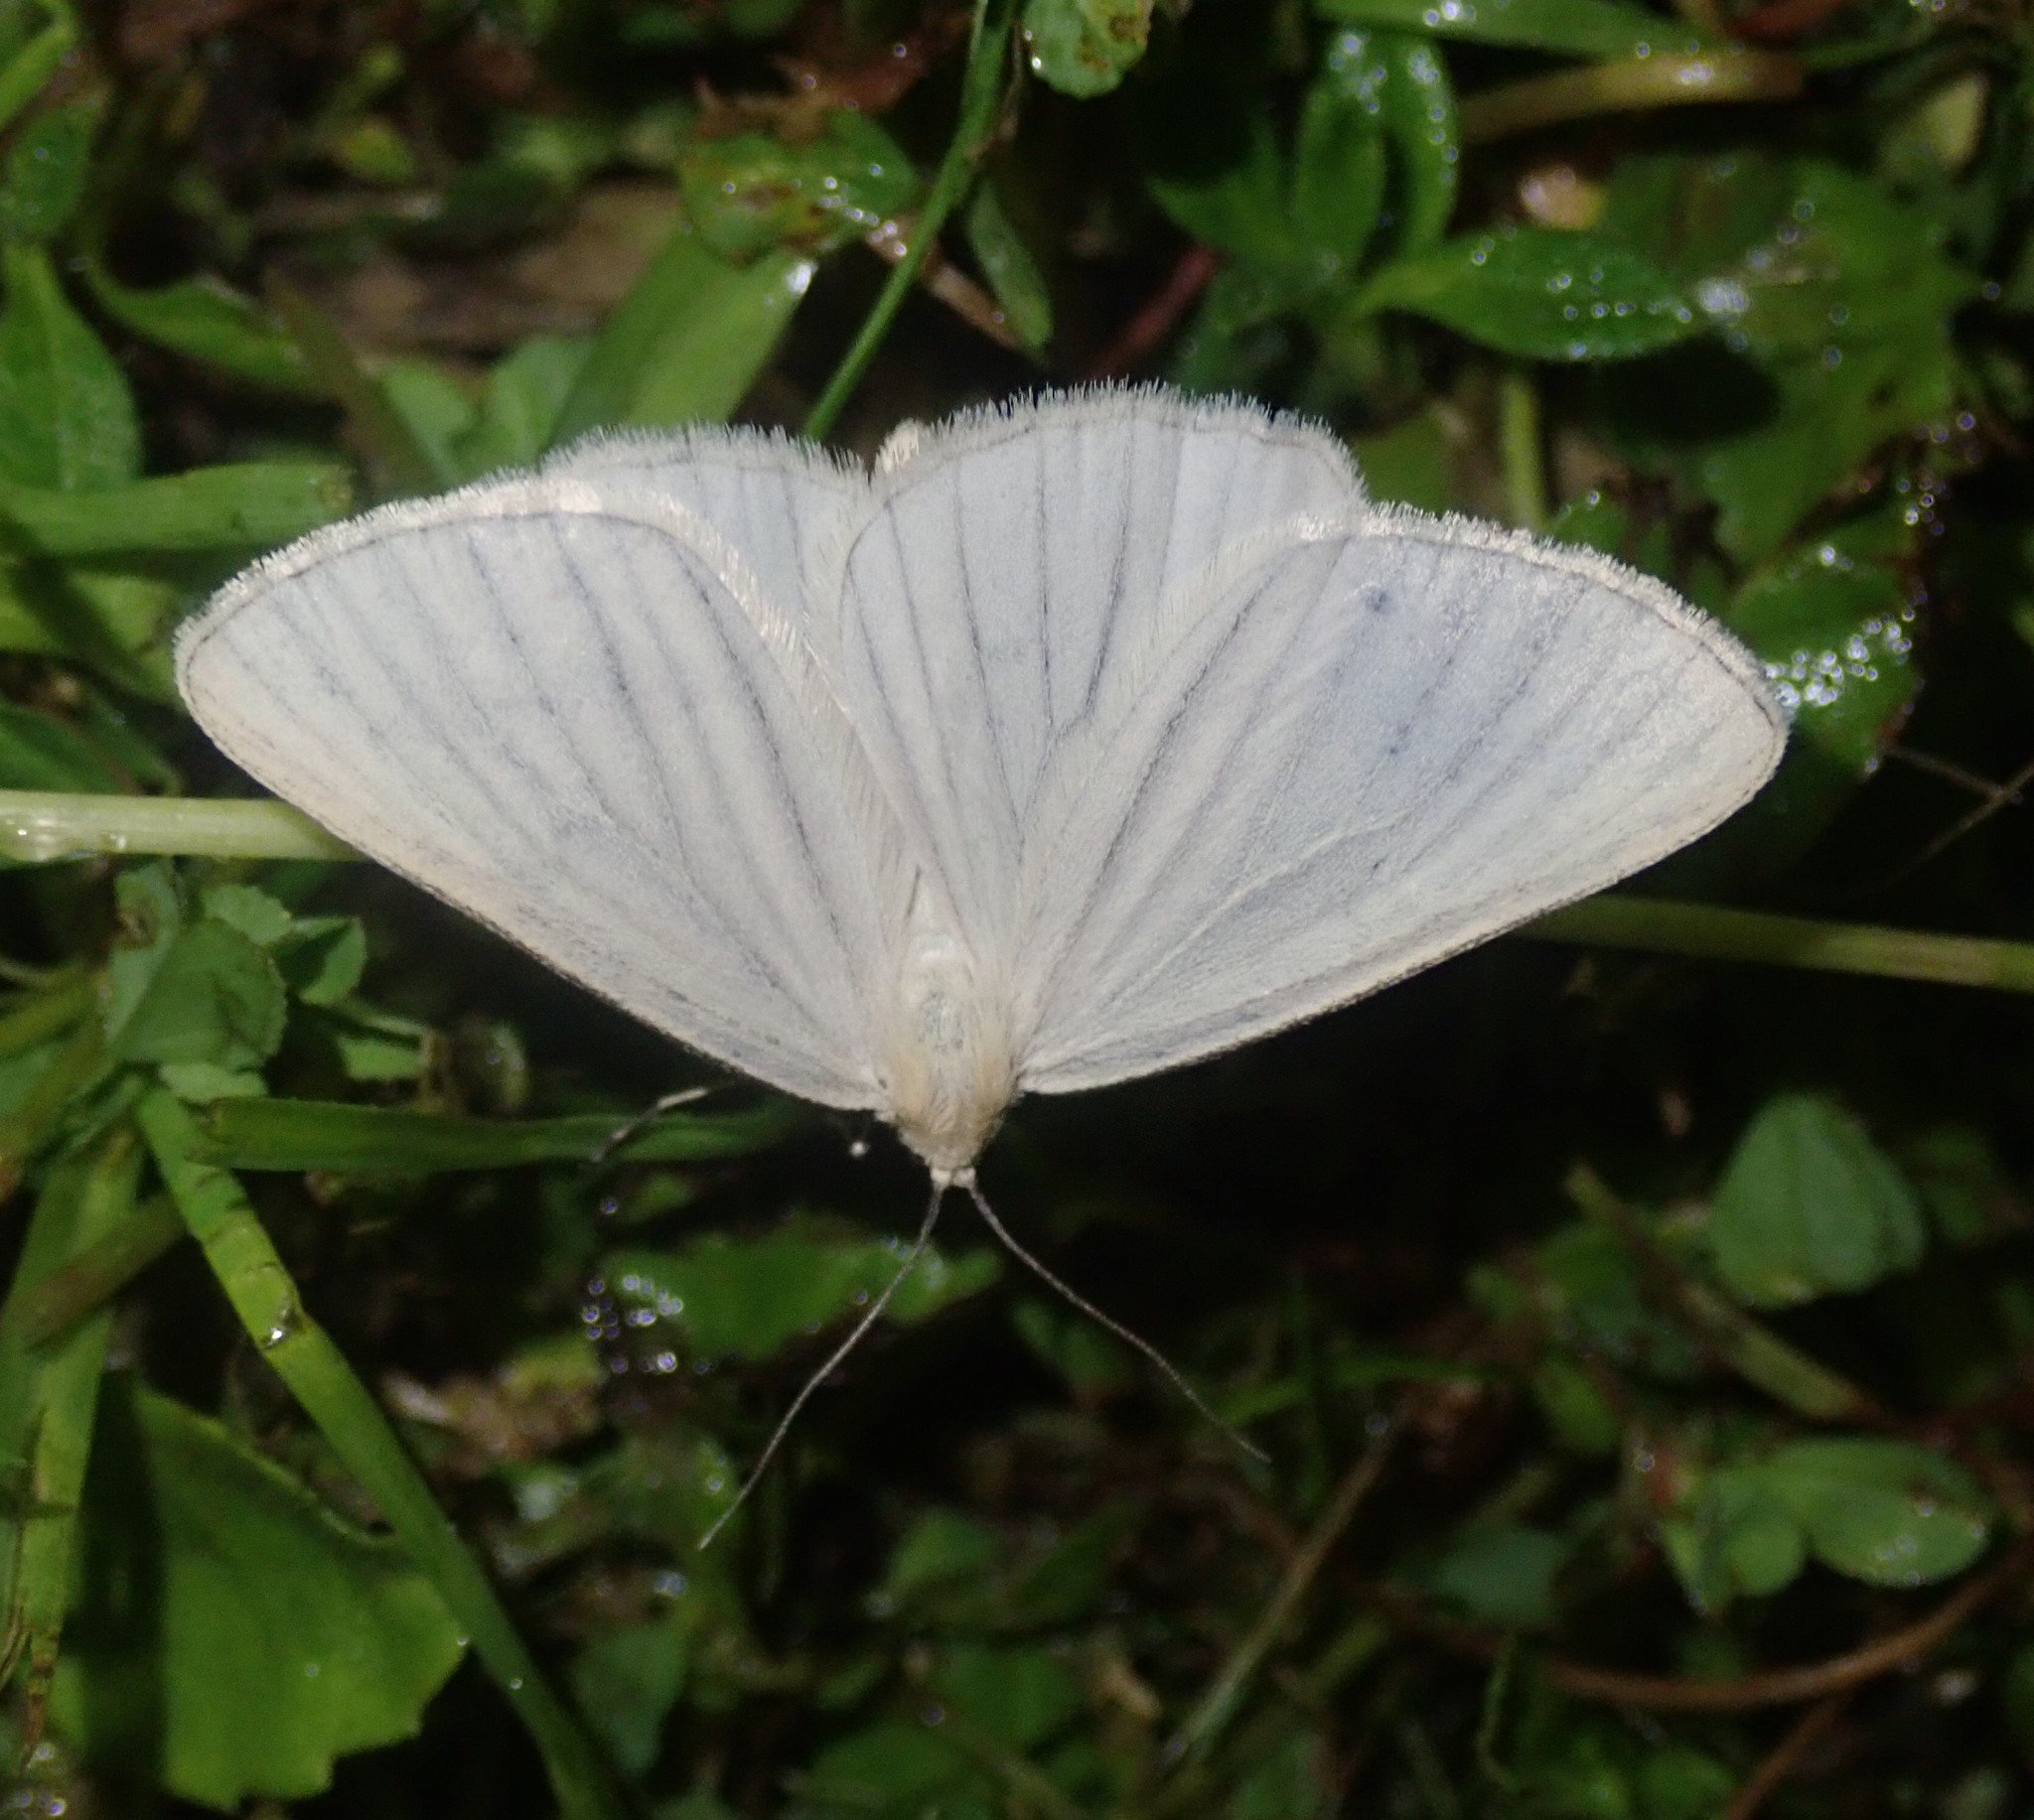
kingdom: Animalia
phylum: Arthropoda
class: Insecta
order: Lepidoptera
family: Geometridae
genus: Siona
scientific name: Siona lineata
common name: Black-veined moth
